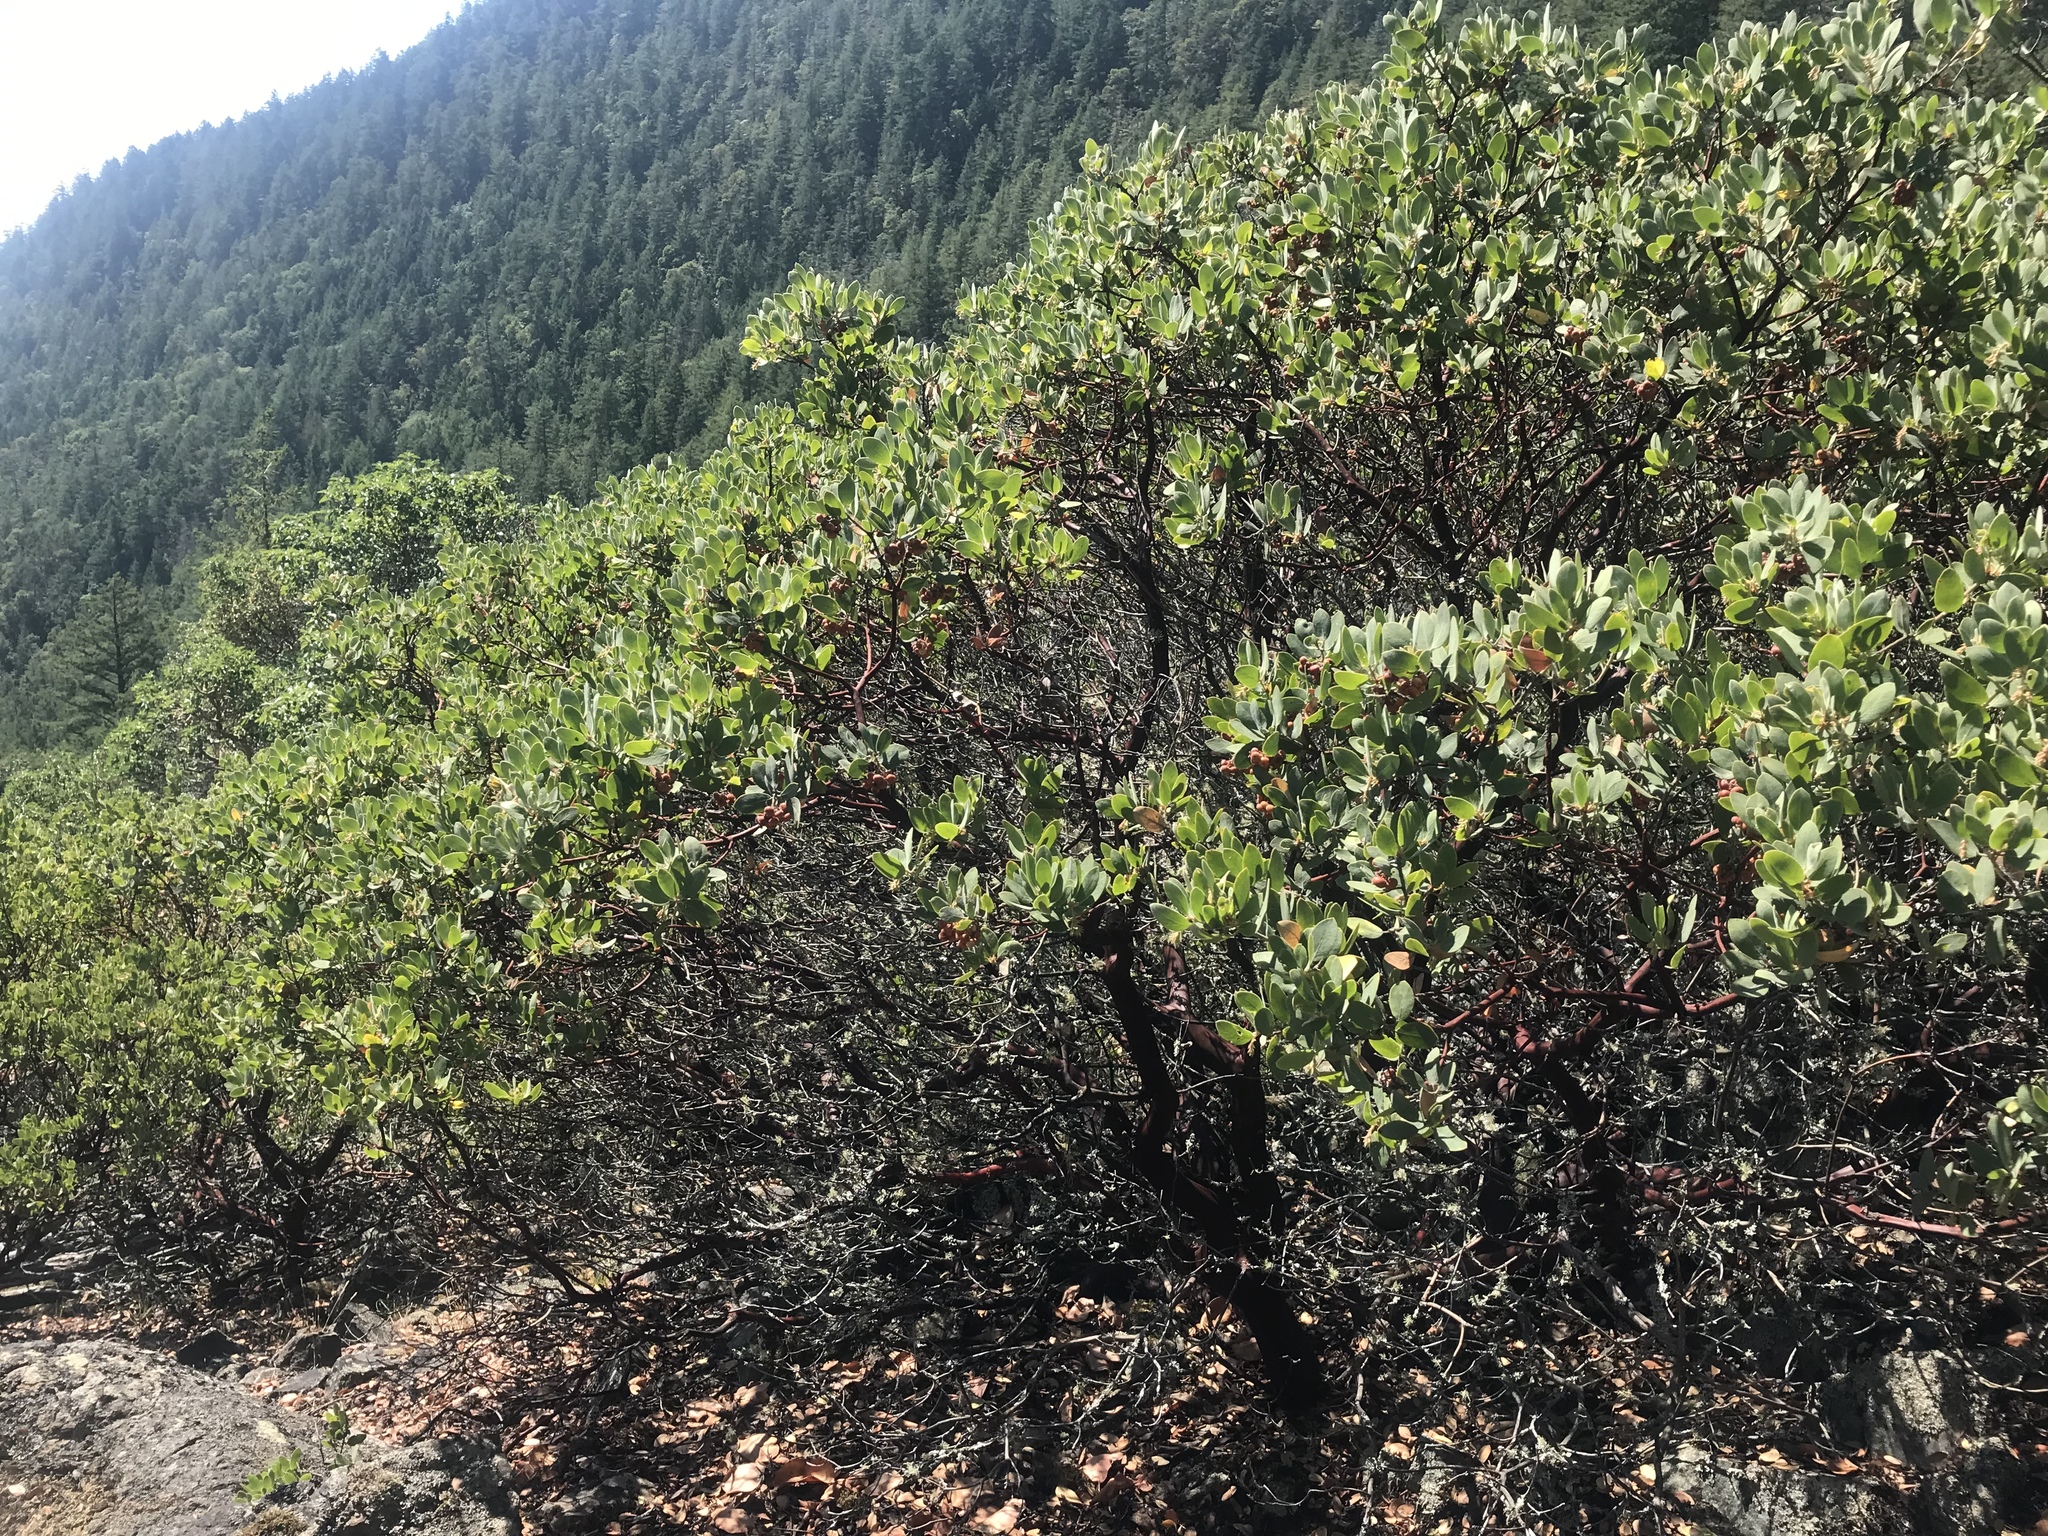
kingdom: Plantae
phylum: Tracheophyta
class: Magnoliopsida
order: Ericales
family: Ericaceae
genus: Arctostaphylos
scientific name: Arctostaphylos columbiana
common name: Bristly bearberry
